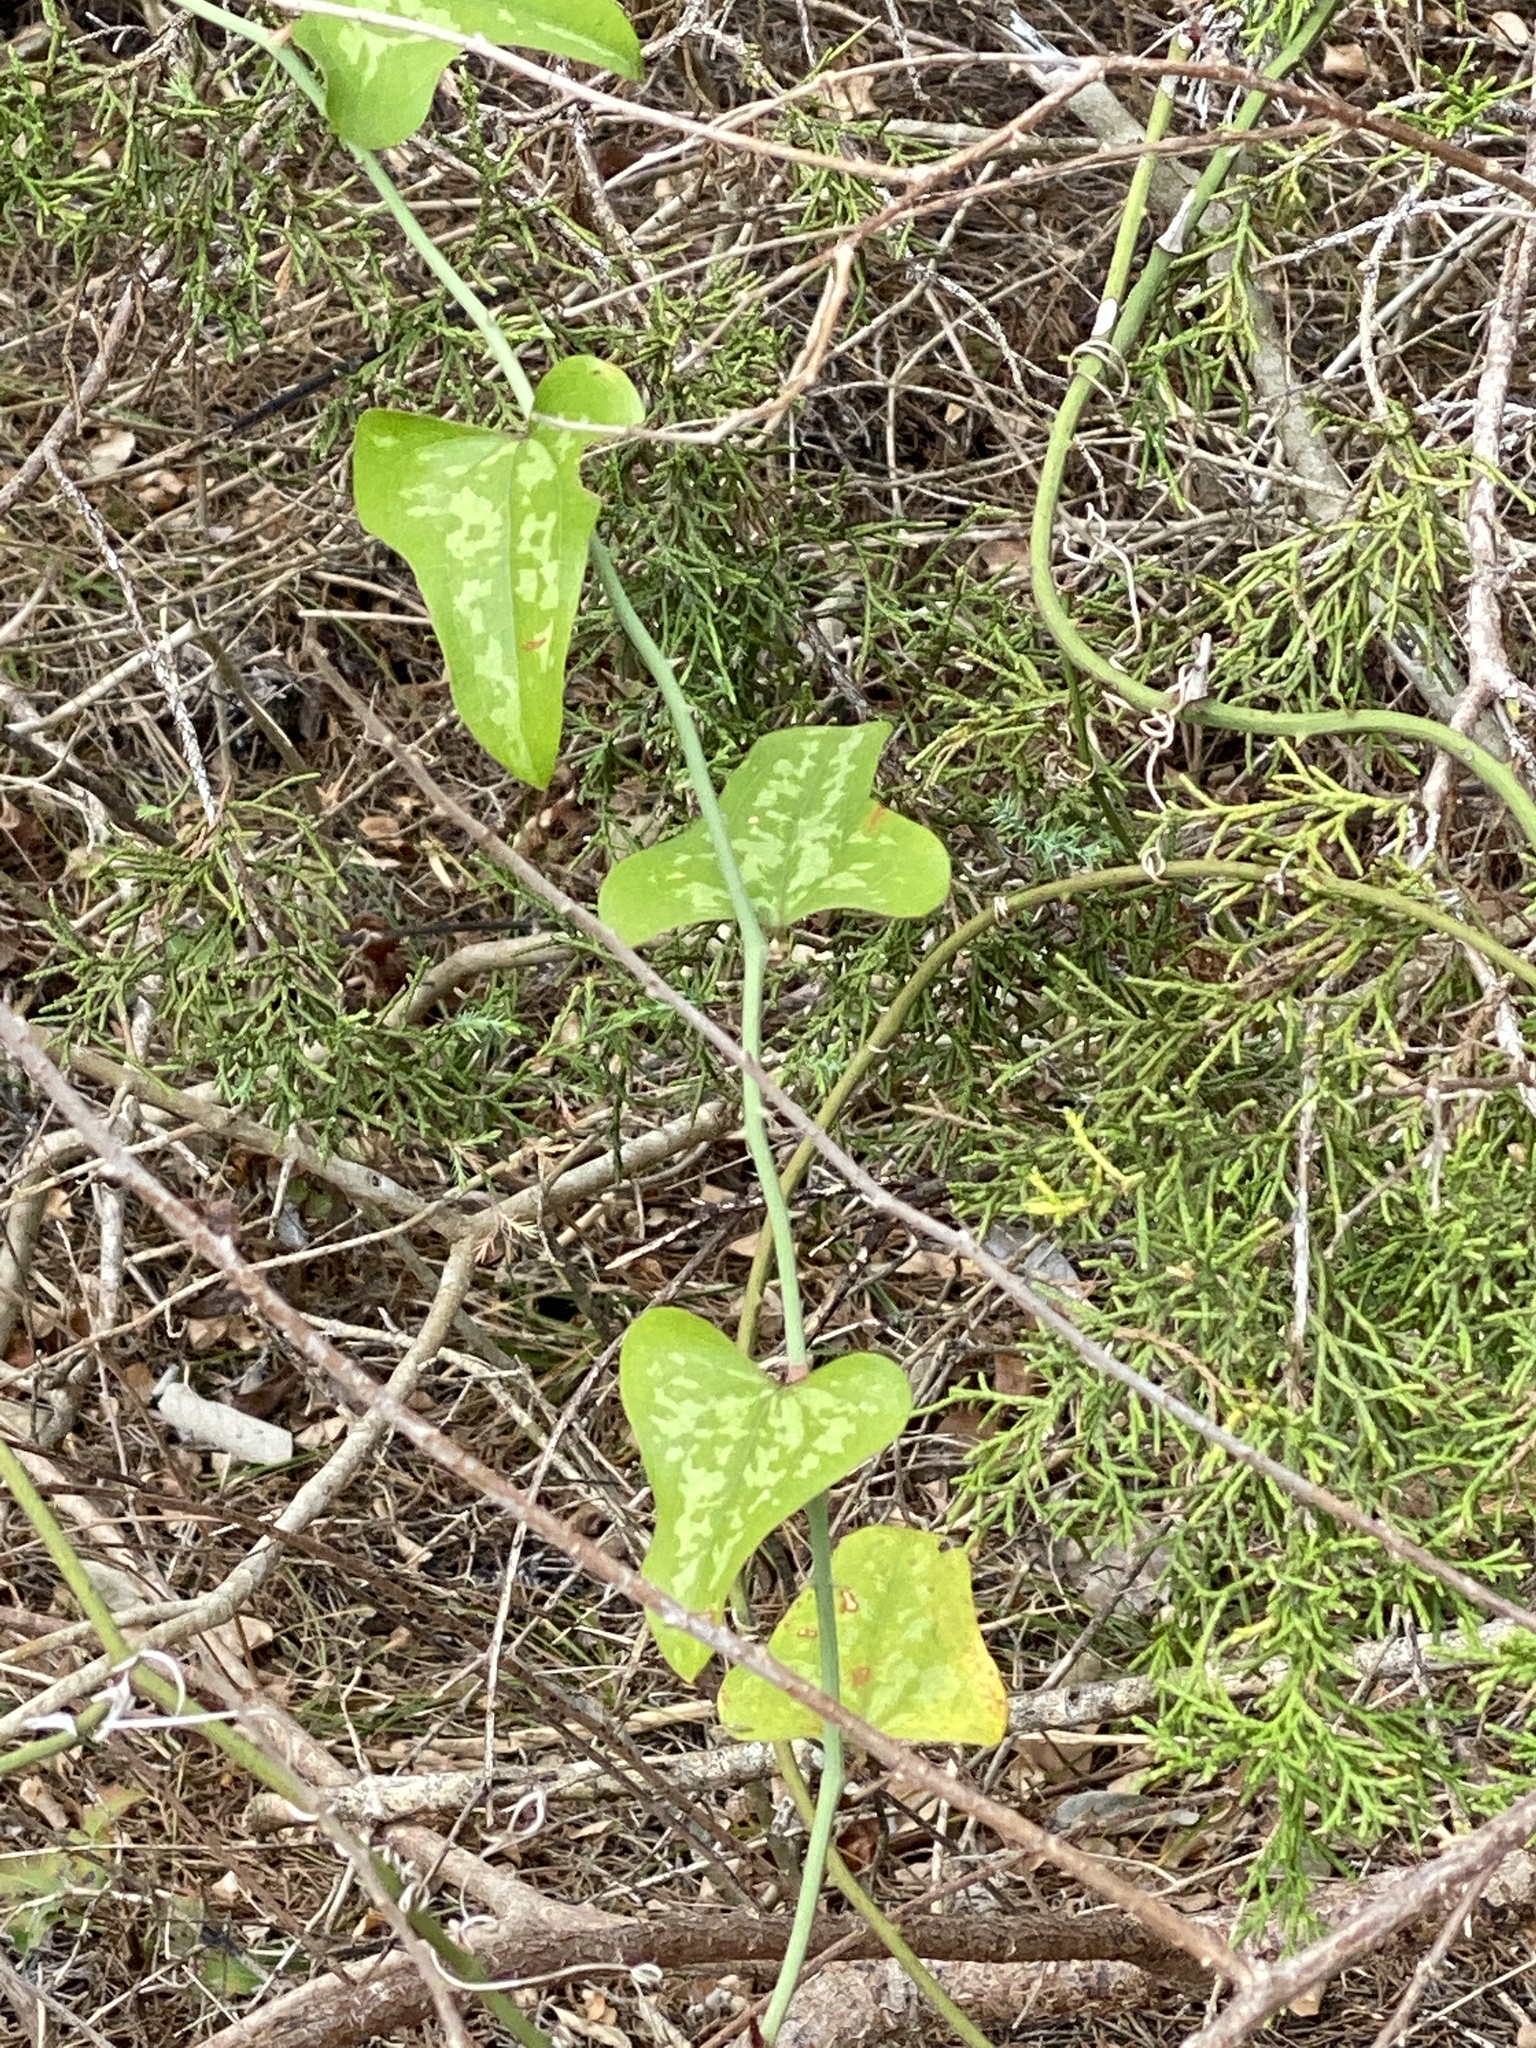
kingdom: Plantae
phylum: Tracheophyta
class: Liliopsida
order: Liliales
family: Smilacaceae
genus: Smilax
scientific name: Smilax bona-nox
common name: Catbrier
